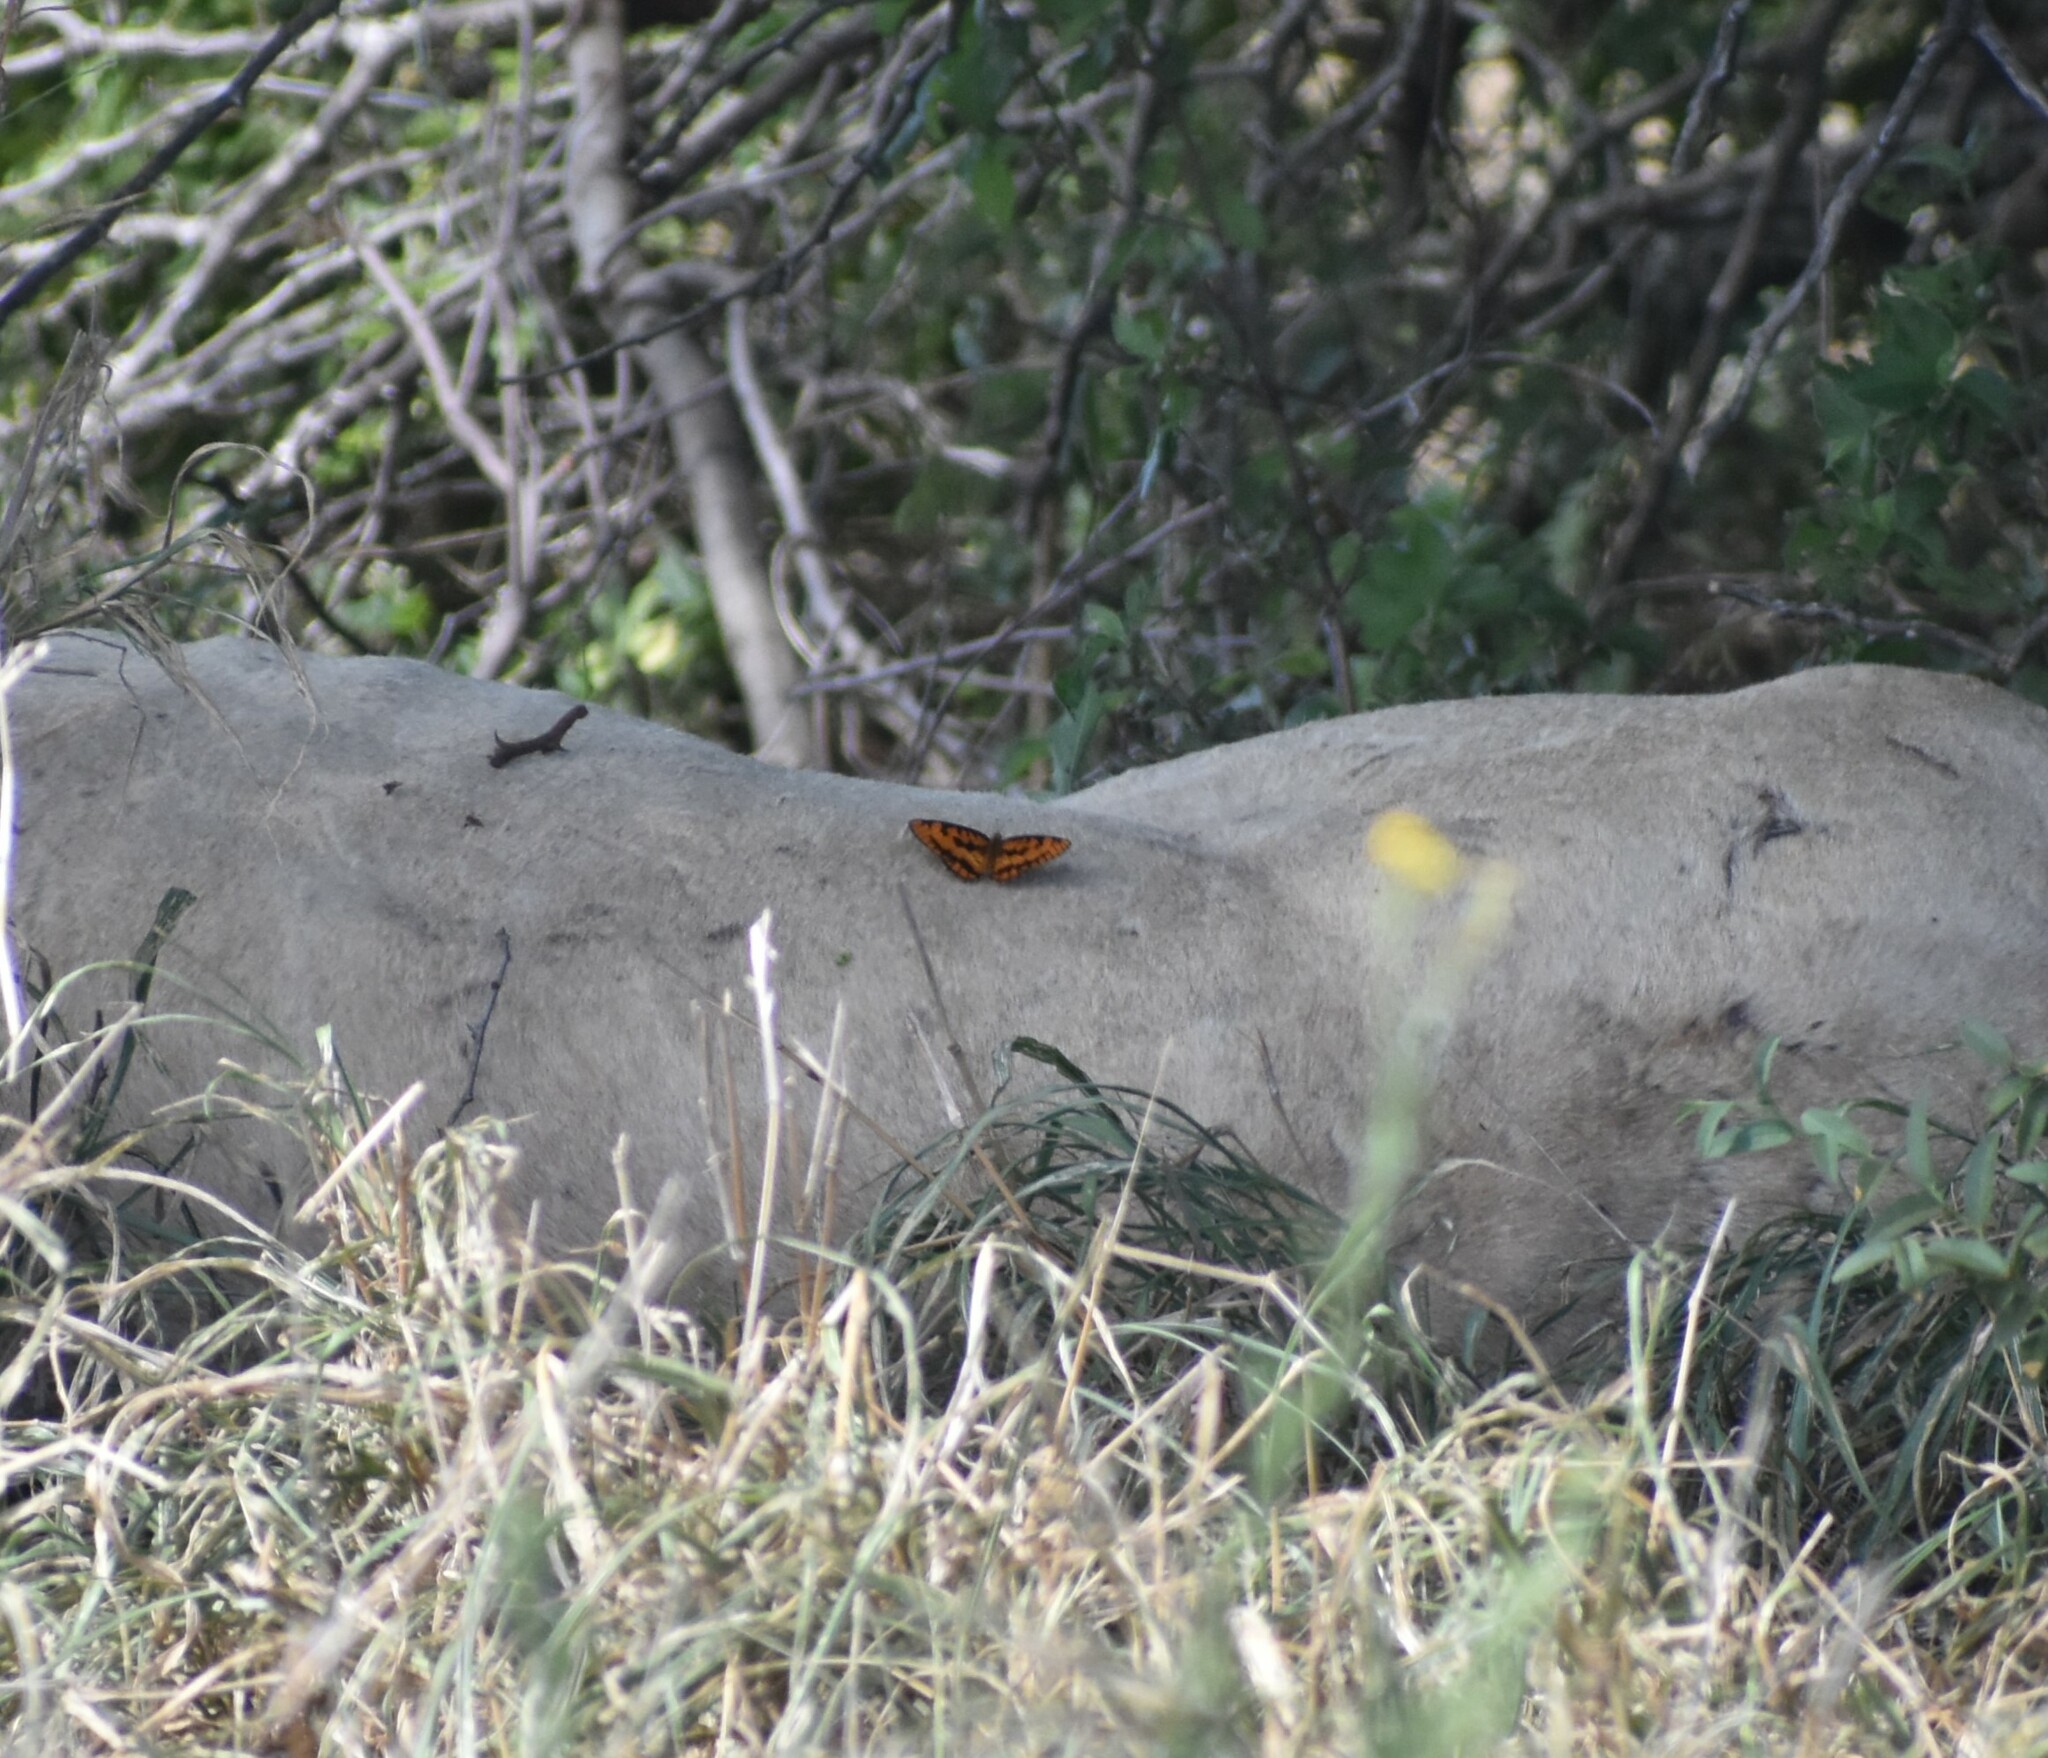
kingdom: Animalia
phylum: Arthropoda
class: Insecta
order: Lepidoptera
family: Nymphalidae
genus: Byblia
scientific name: Byblia ilithyia
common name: Spotted joker
